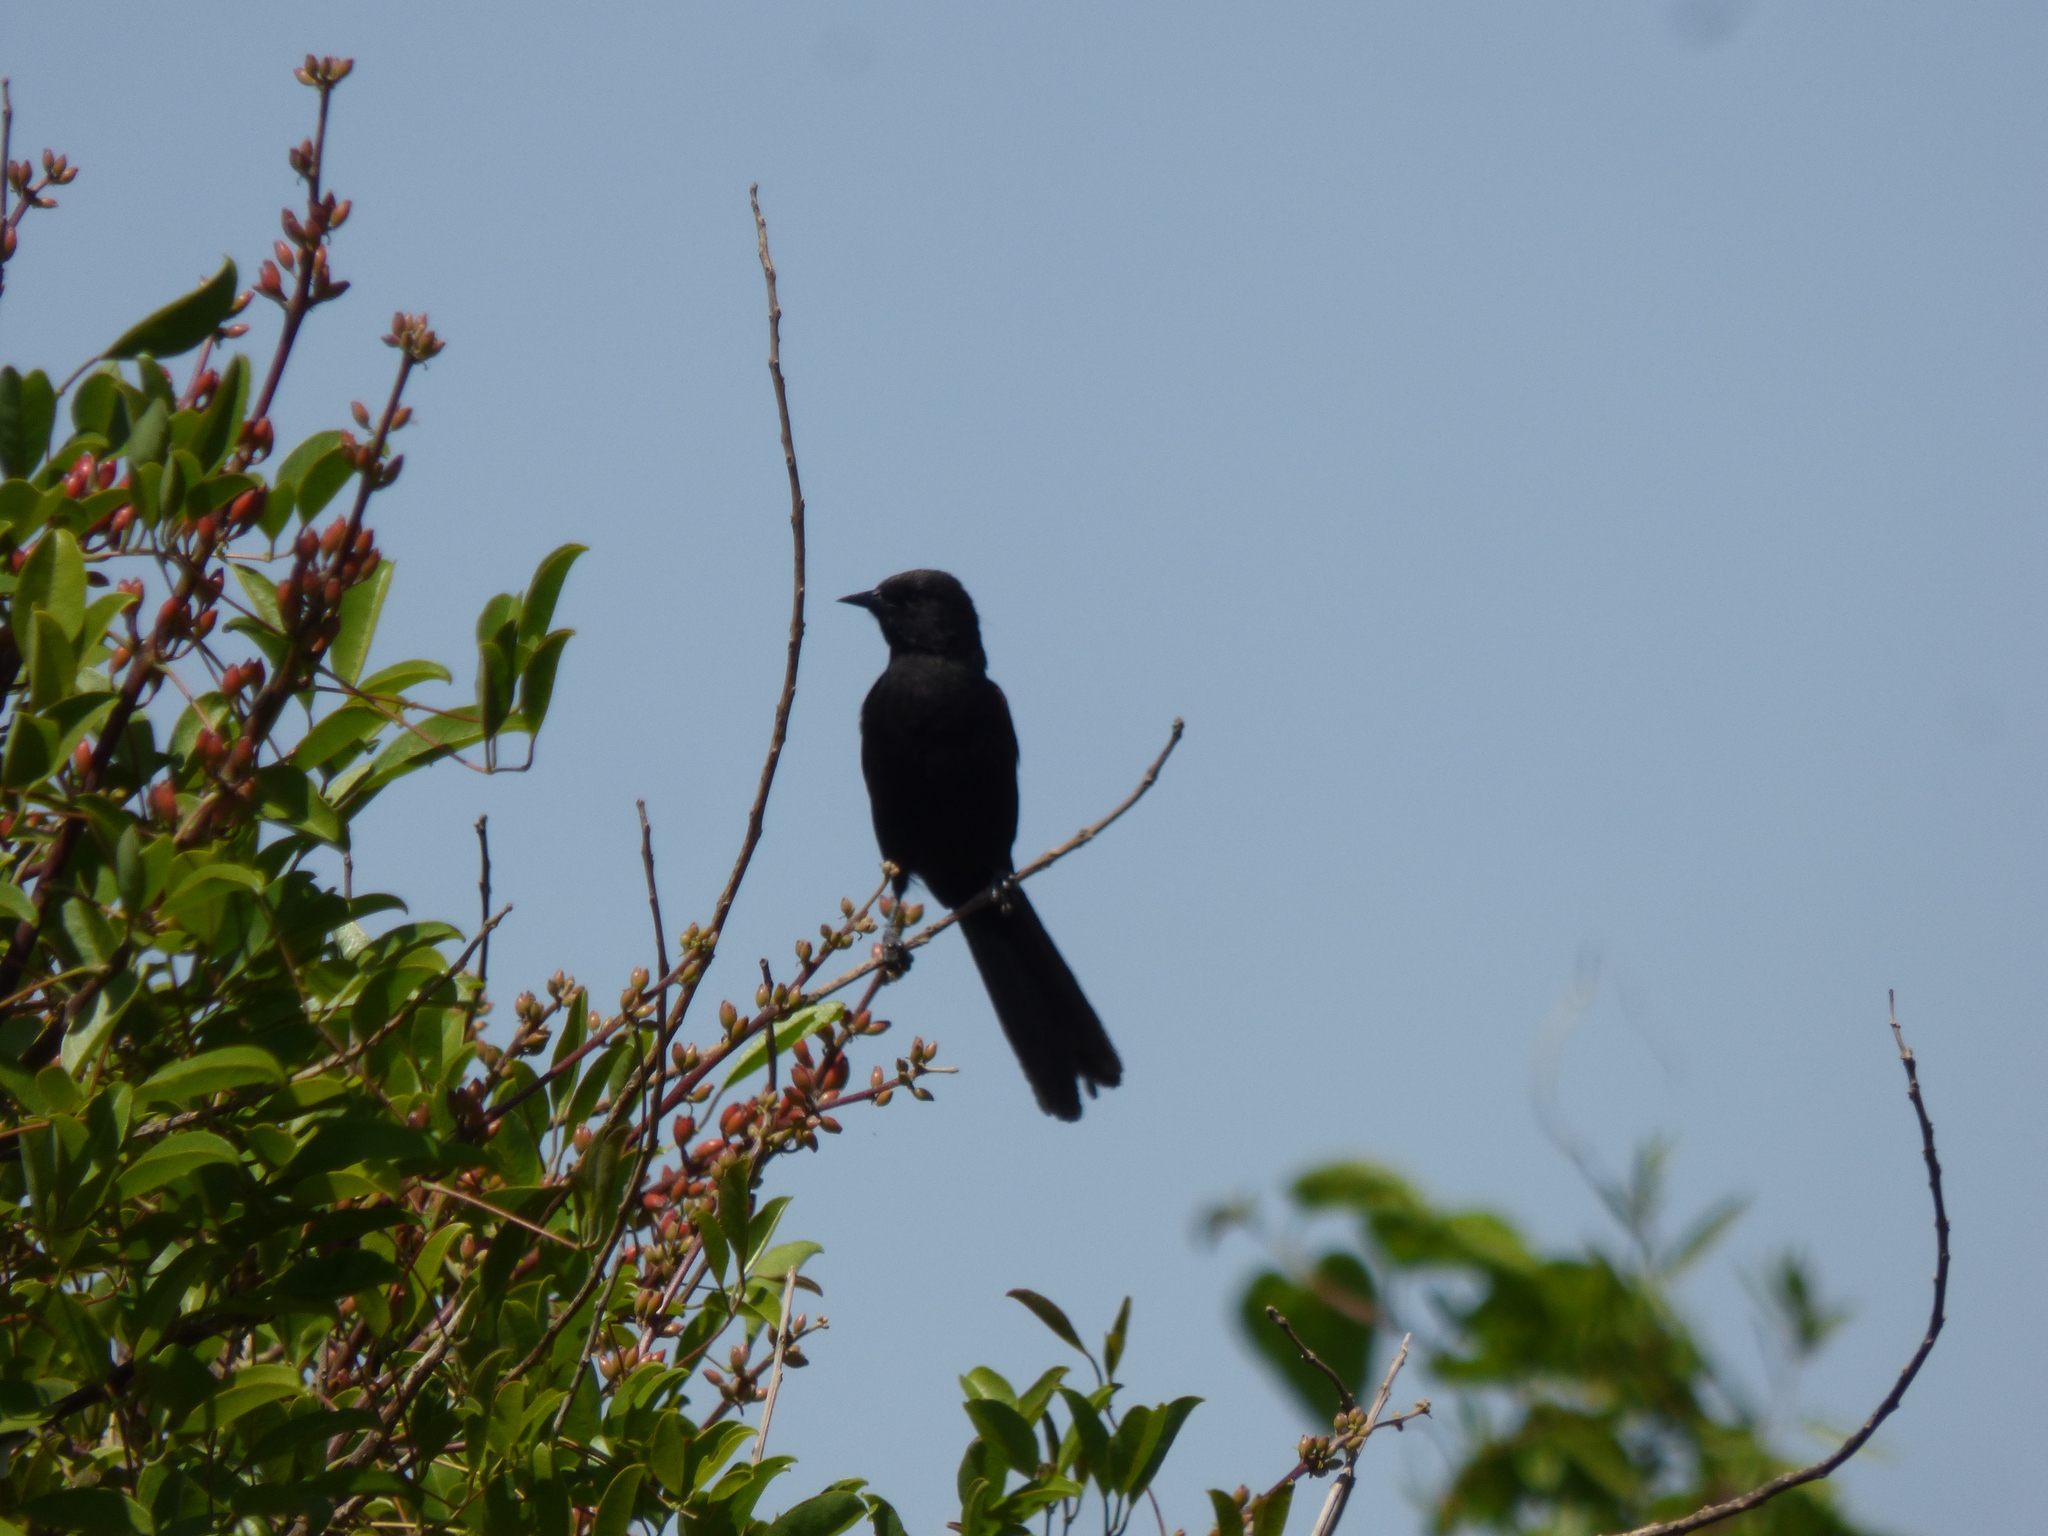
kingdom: Animalia
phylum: Chordata
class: Aves
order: Passeriformes
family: Icteridae
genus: Icterus
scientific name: Icterus cayanensis
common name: Epaulet oriole
